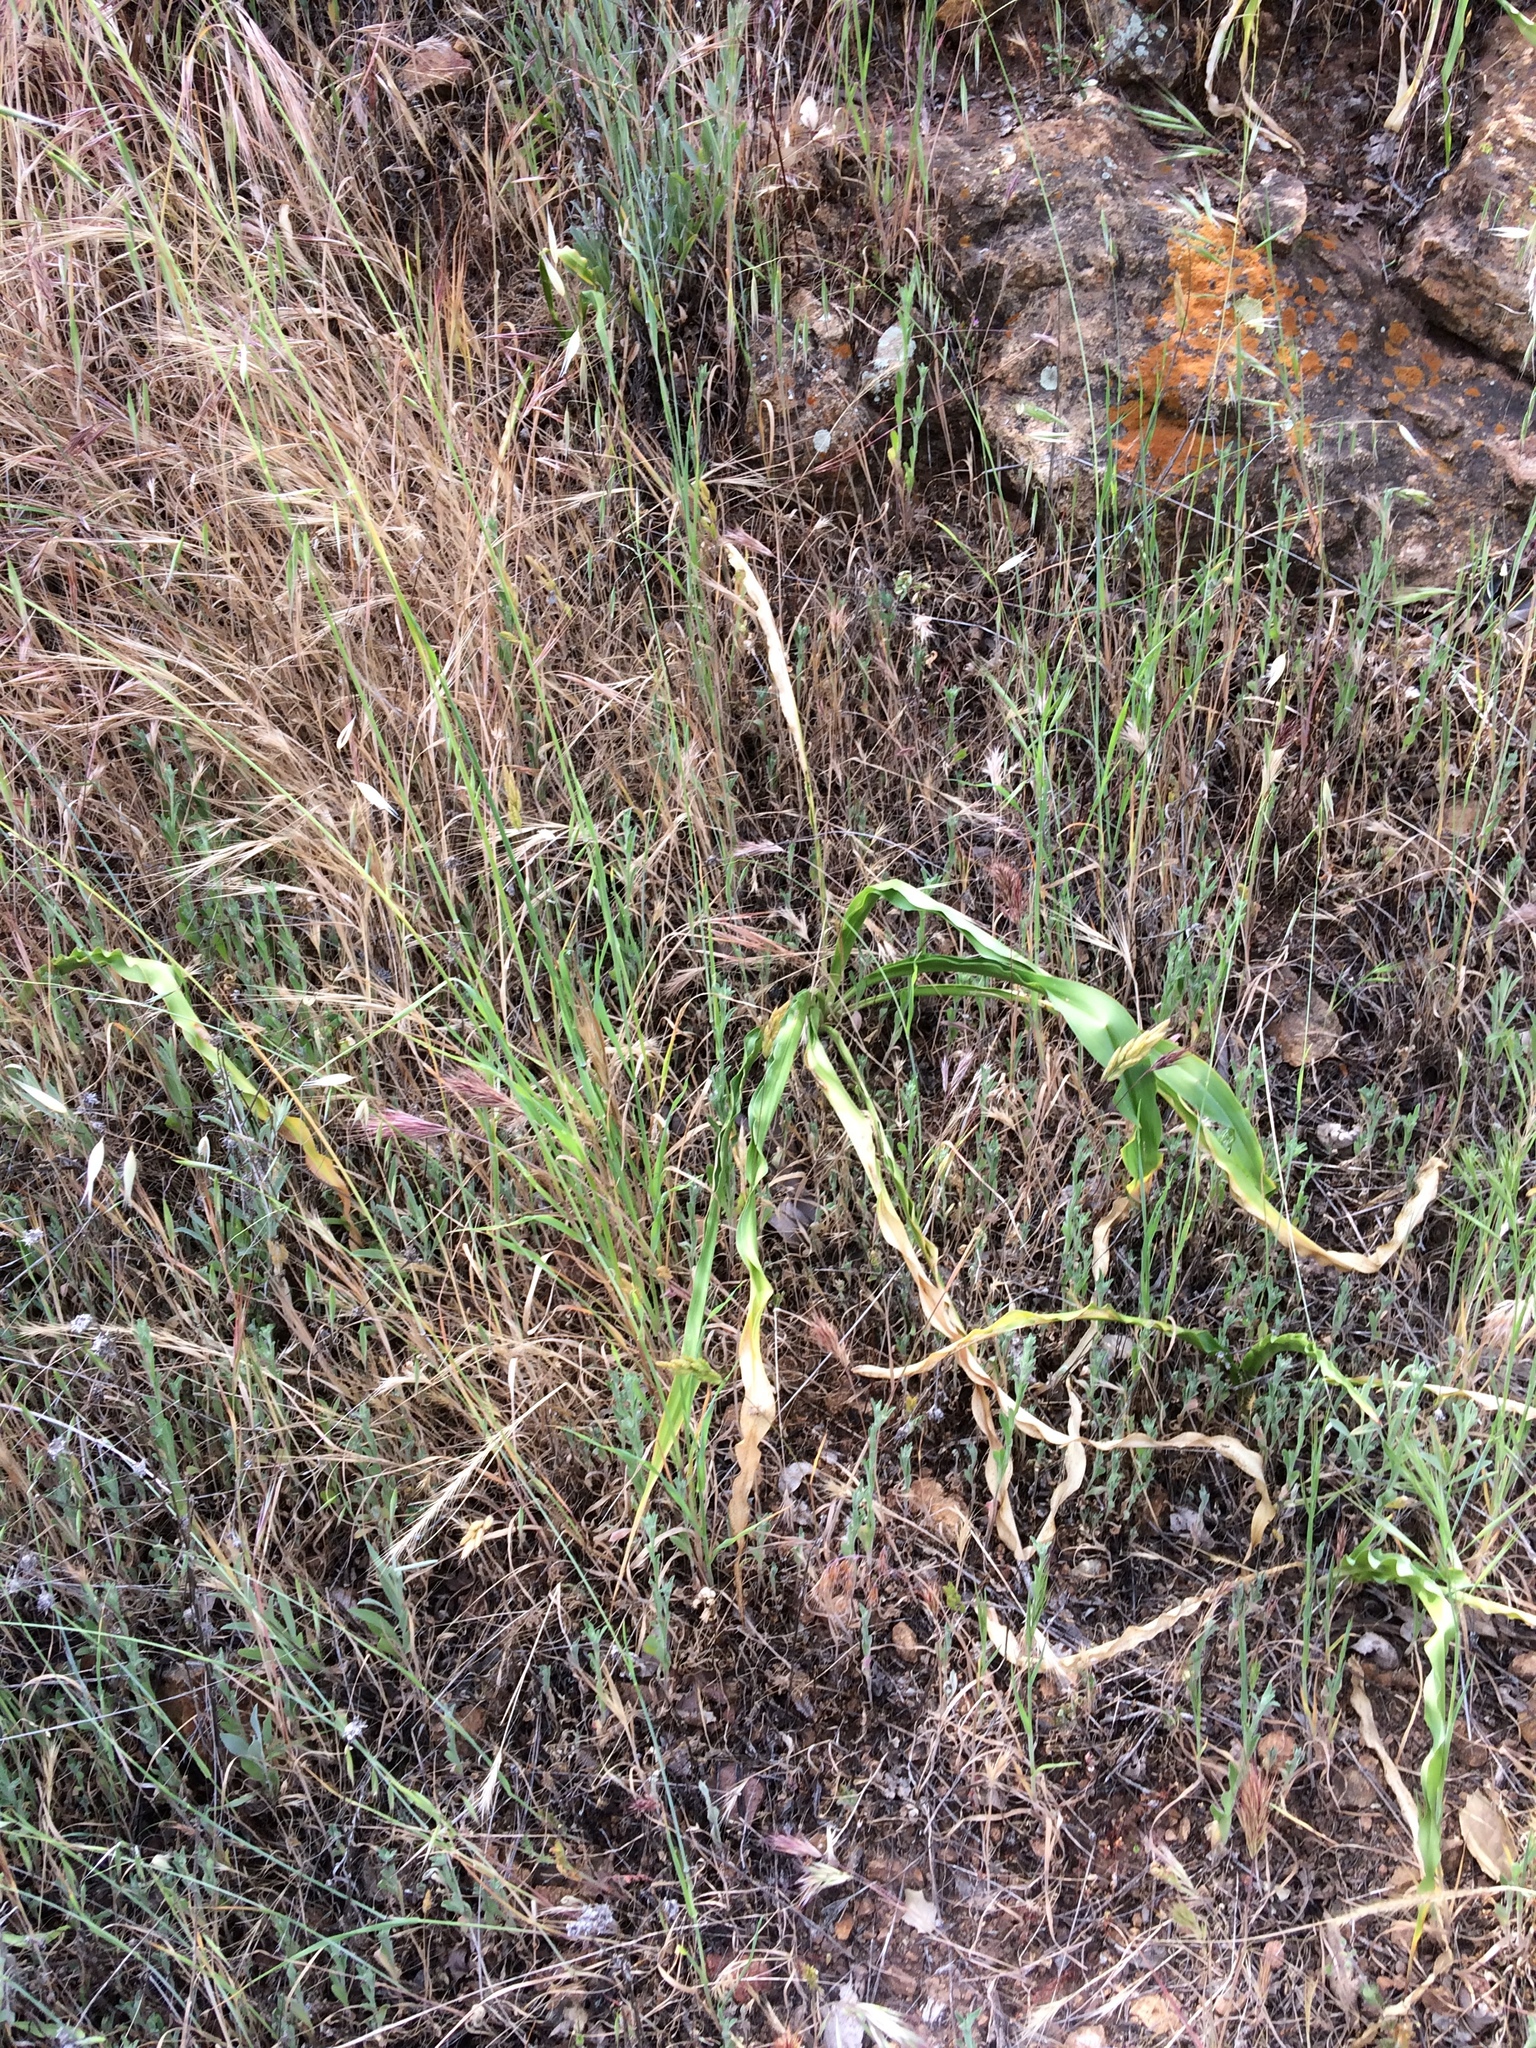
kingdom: Plantae
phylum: Tracheophyta
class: Liliopsida
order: Asparagales
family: Asparagaceae
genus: Chlorogalum
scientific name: Chlorogalum pomeridianum
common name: Amole
